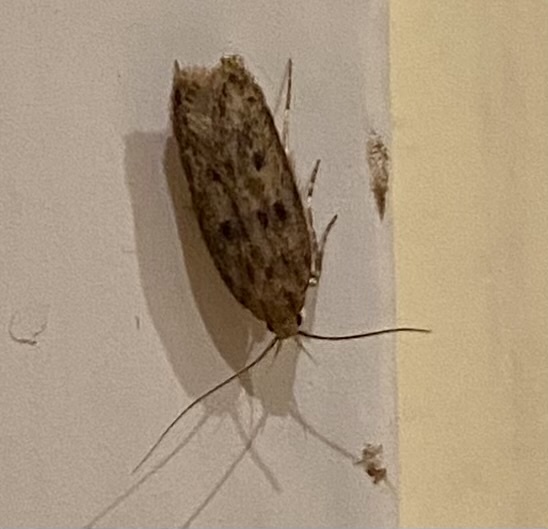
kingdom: Animalia
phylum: Arthropoda
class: Insecta
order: Lepidoptera
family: Oecophoridae
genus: Hofmannophila
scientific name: Hofmannophila pseudospretella
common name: Brown house moth
